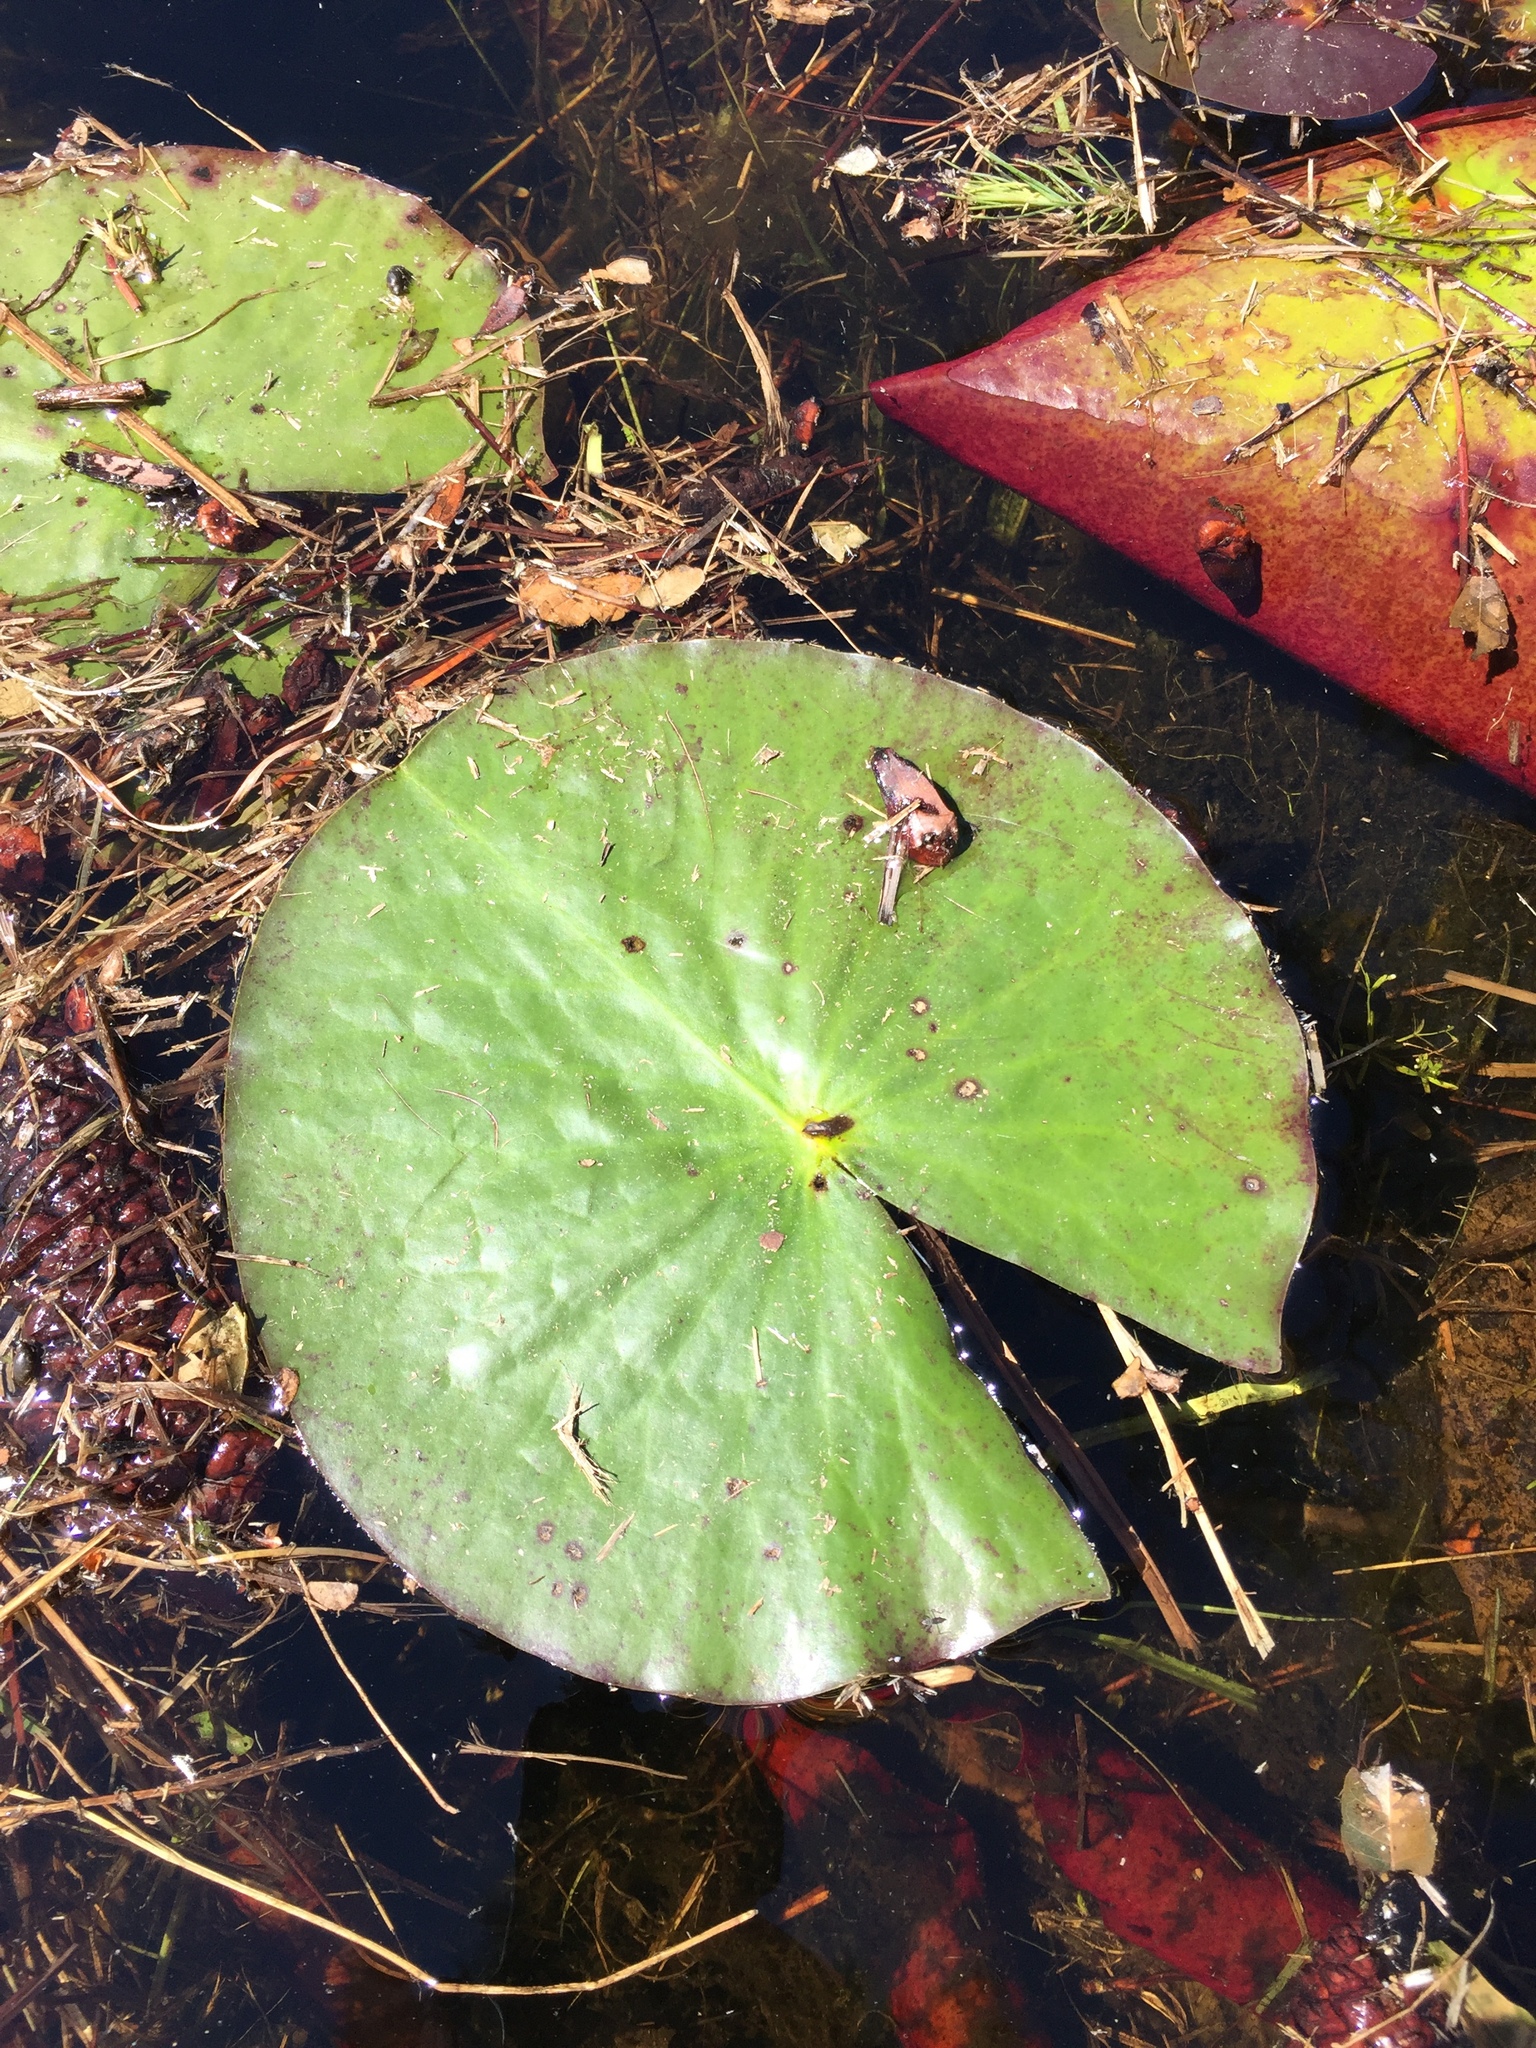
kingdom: Plantae
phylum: Tracheophyta
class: Magnoliopsida
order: Nymphaeales
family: Nymphaeaceae
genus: Nymphaea
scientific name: Nymphaea odorata
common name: Fragrant water-lily
